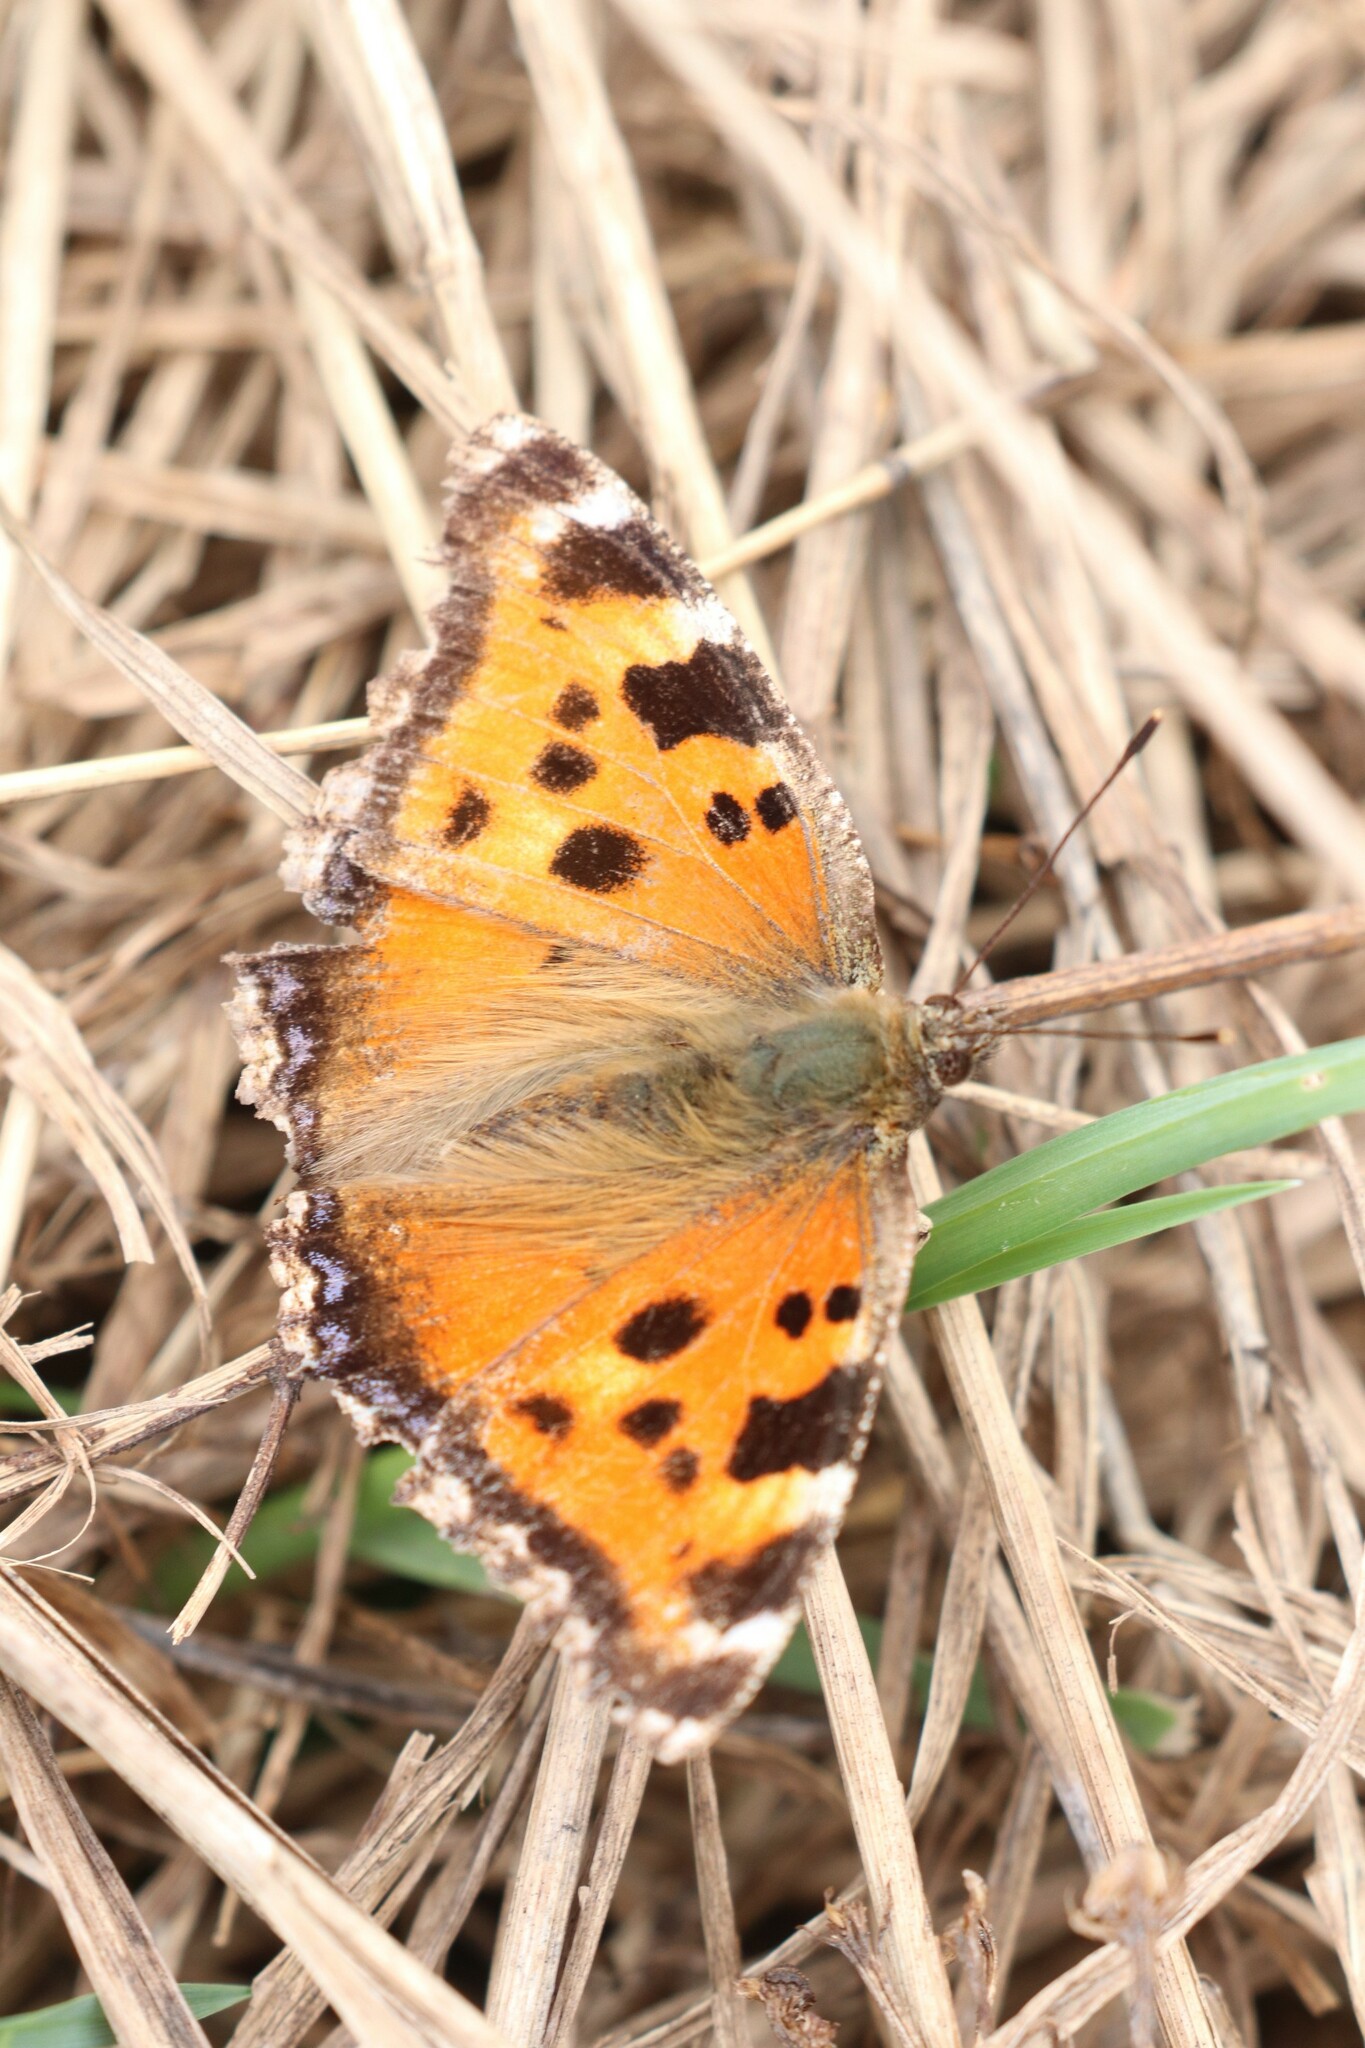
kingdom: Animalia
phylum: Arthropoda
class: Insecta
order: Lepidoptera
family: Nymphalidae
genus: Nymphalis
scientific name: Nymphalis xanthomelas
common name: Scarce tortoiseshell
